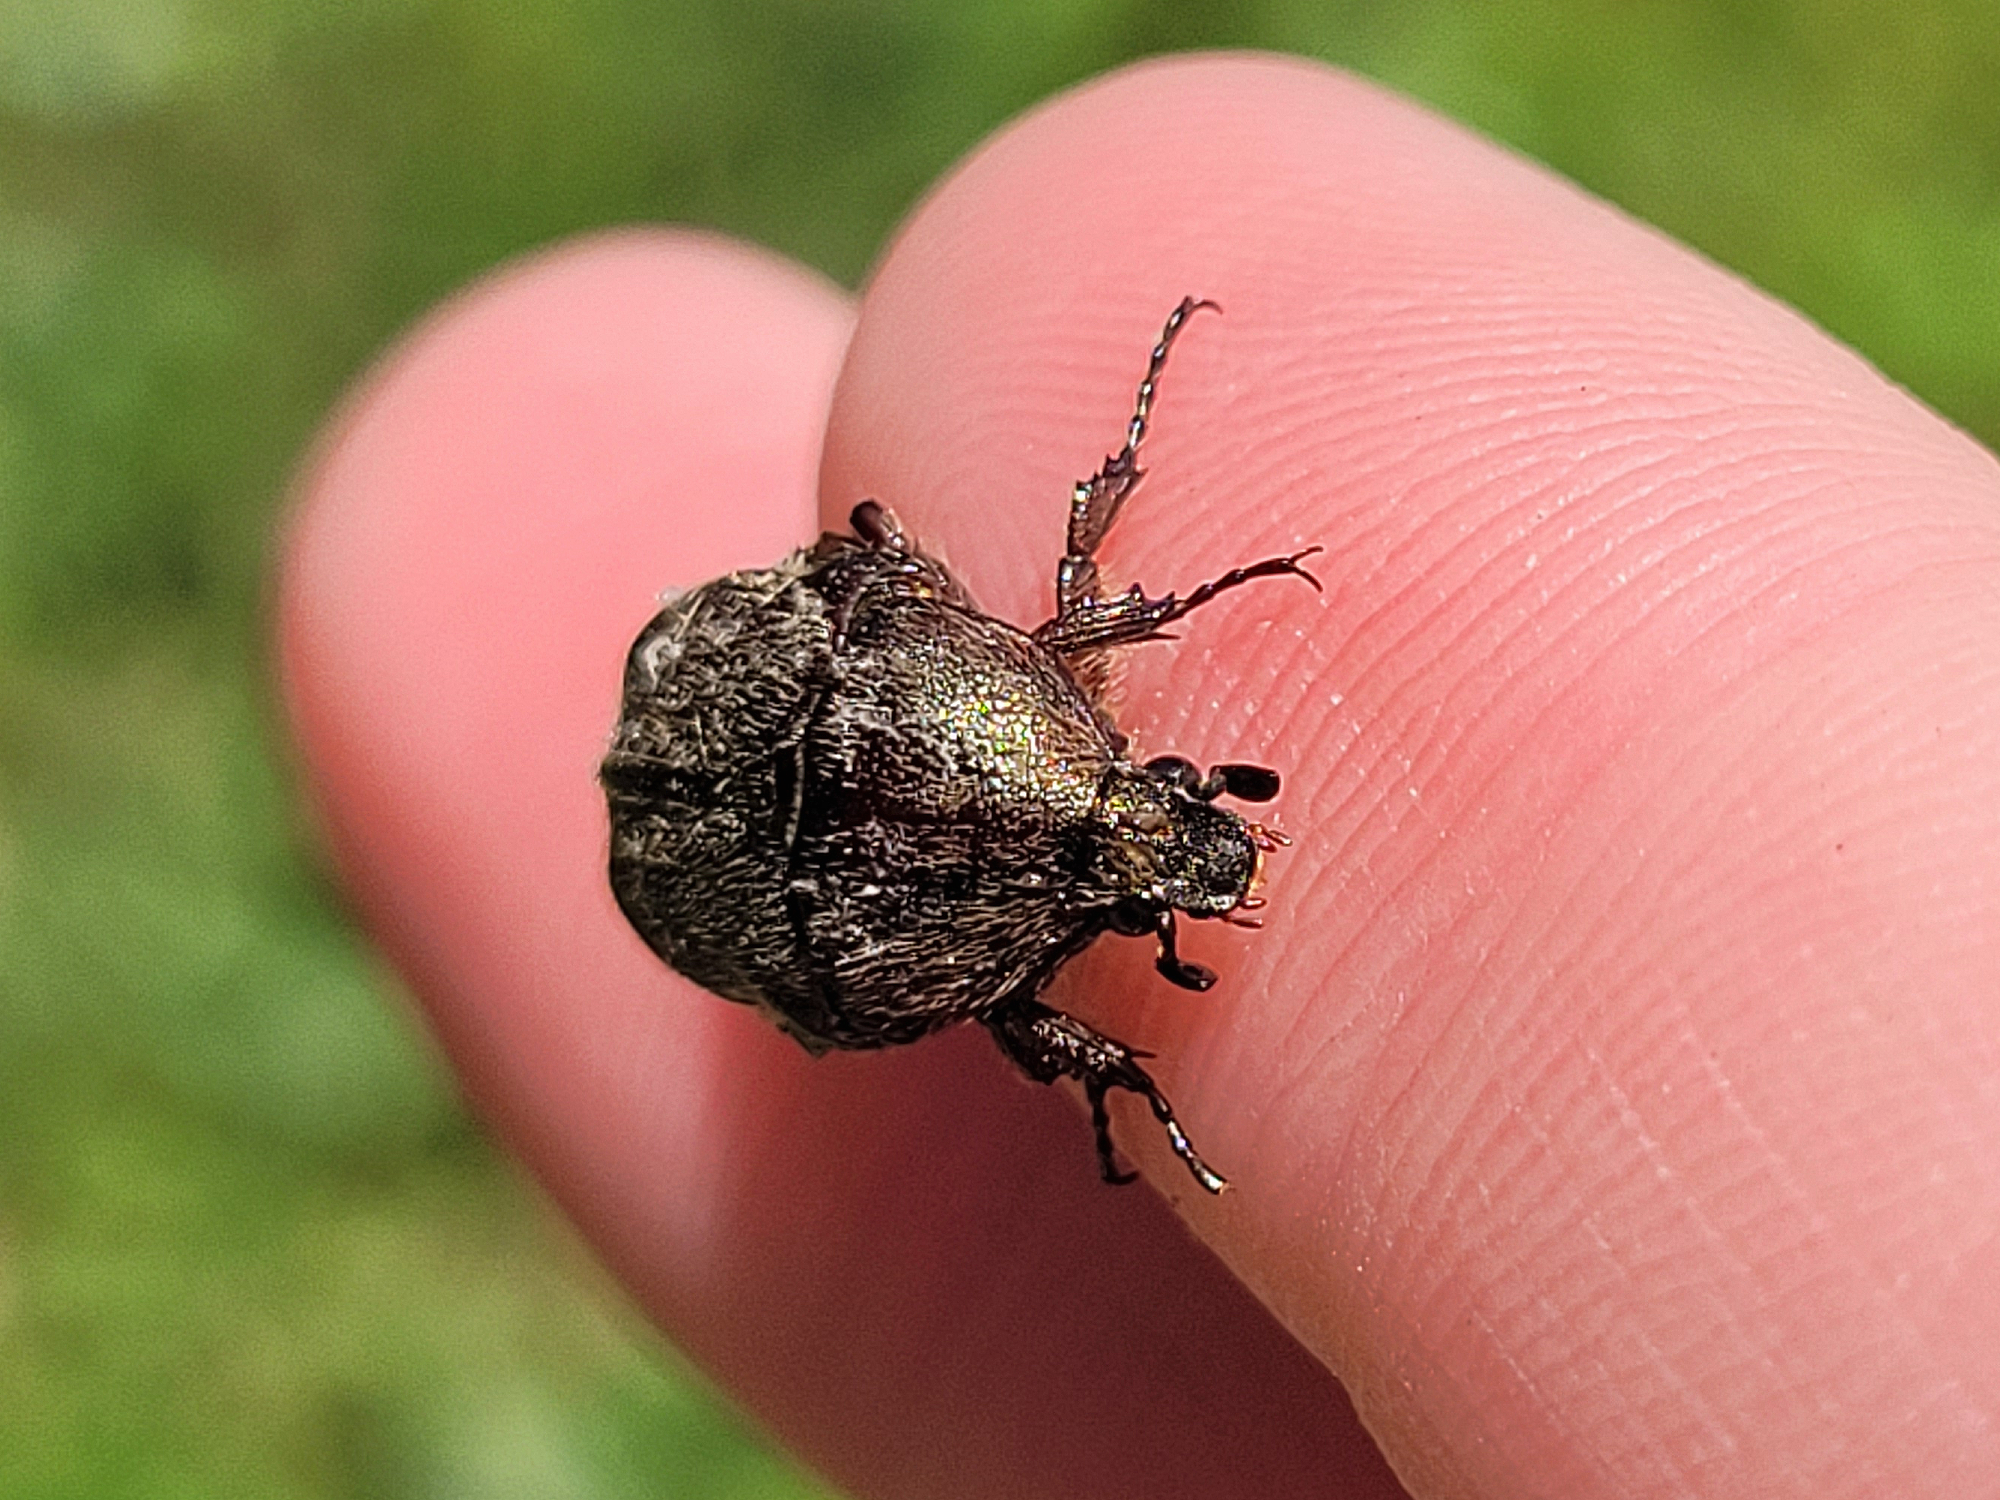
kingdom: Animalia
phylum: Arthropoda
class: Insecta
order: Coleoptera
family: Scarabaeidae
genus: Euphoria
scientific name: Euphoria sepulcralis
